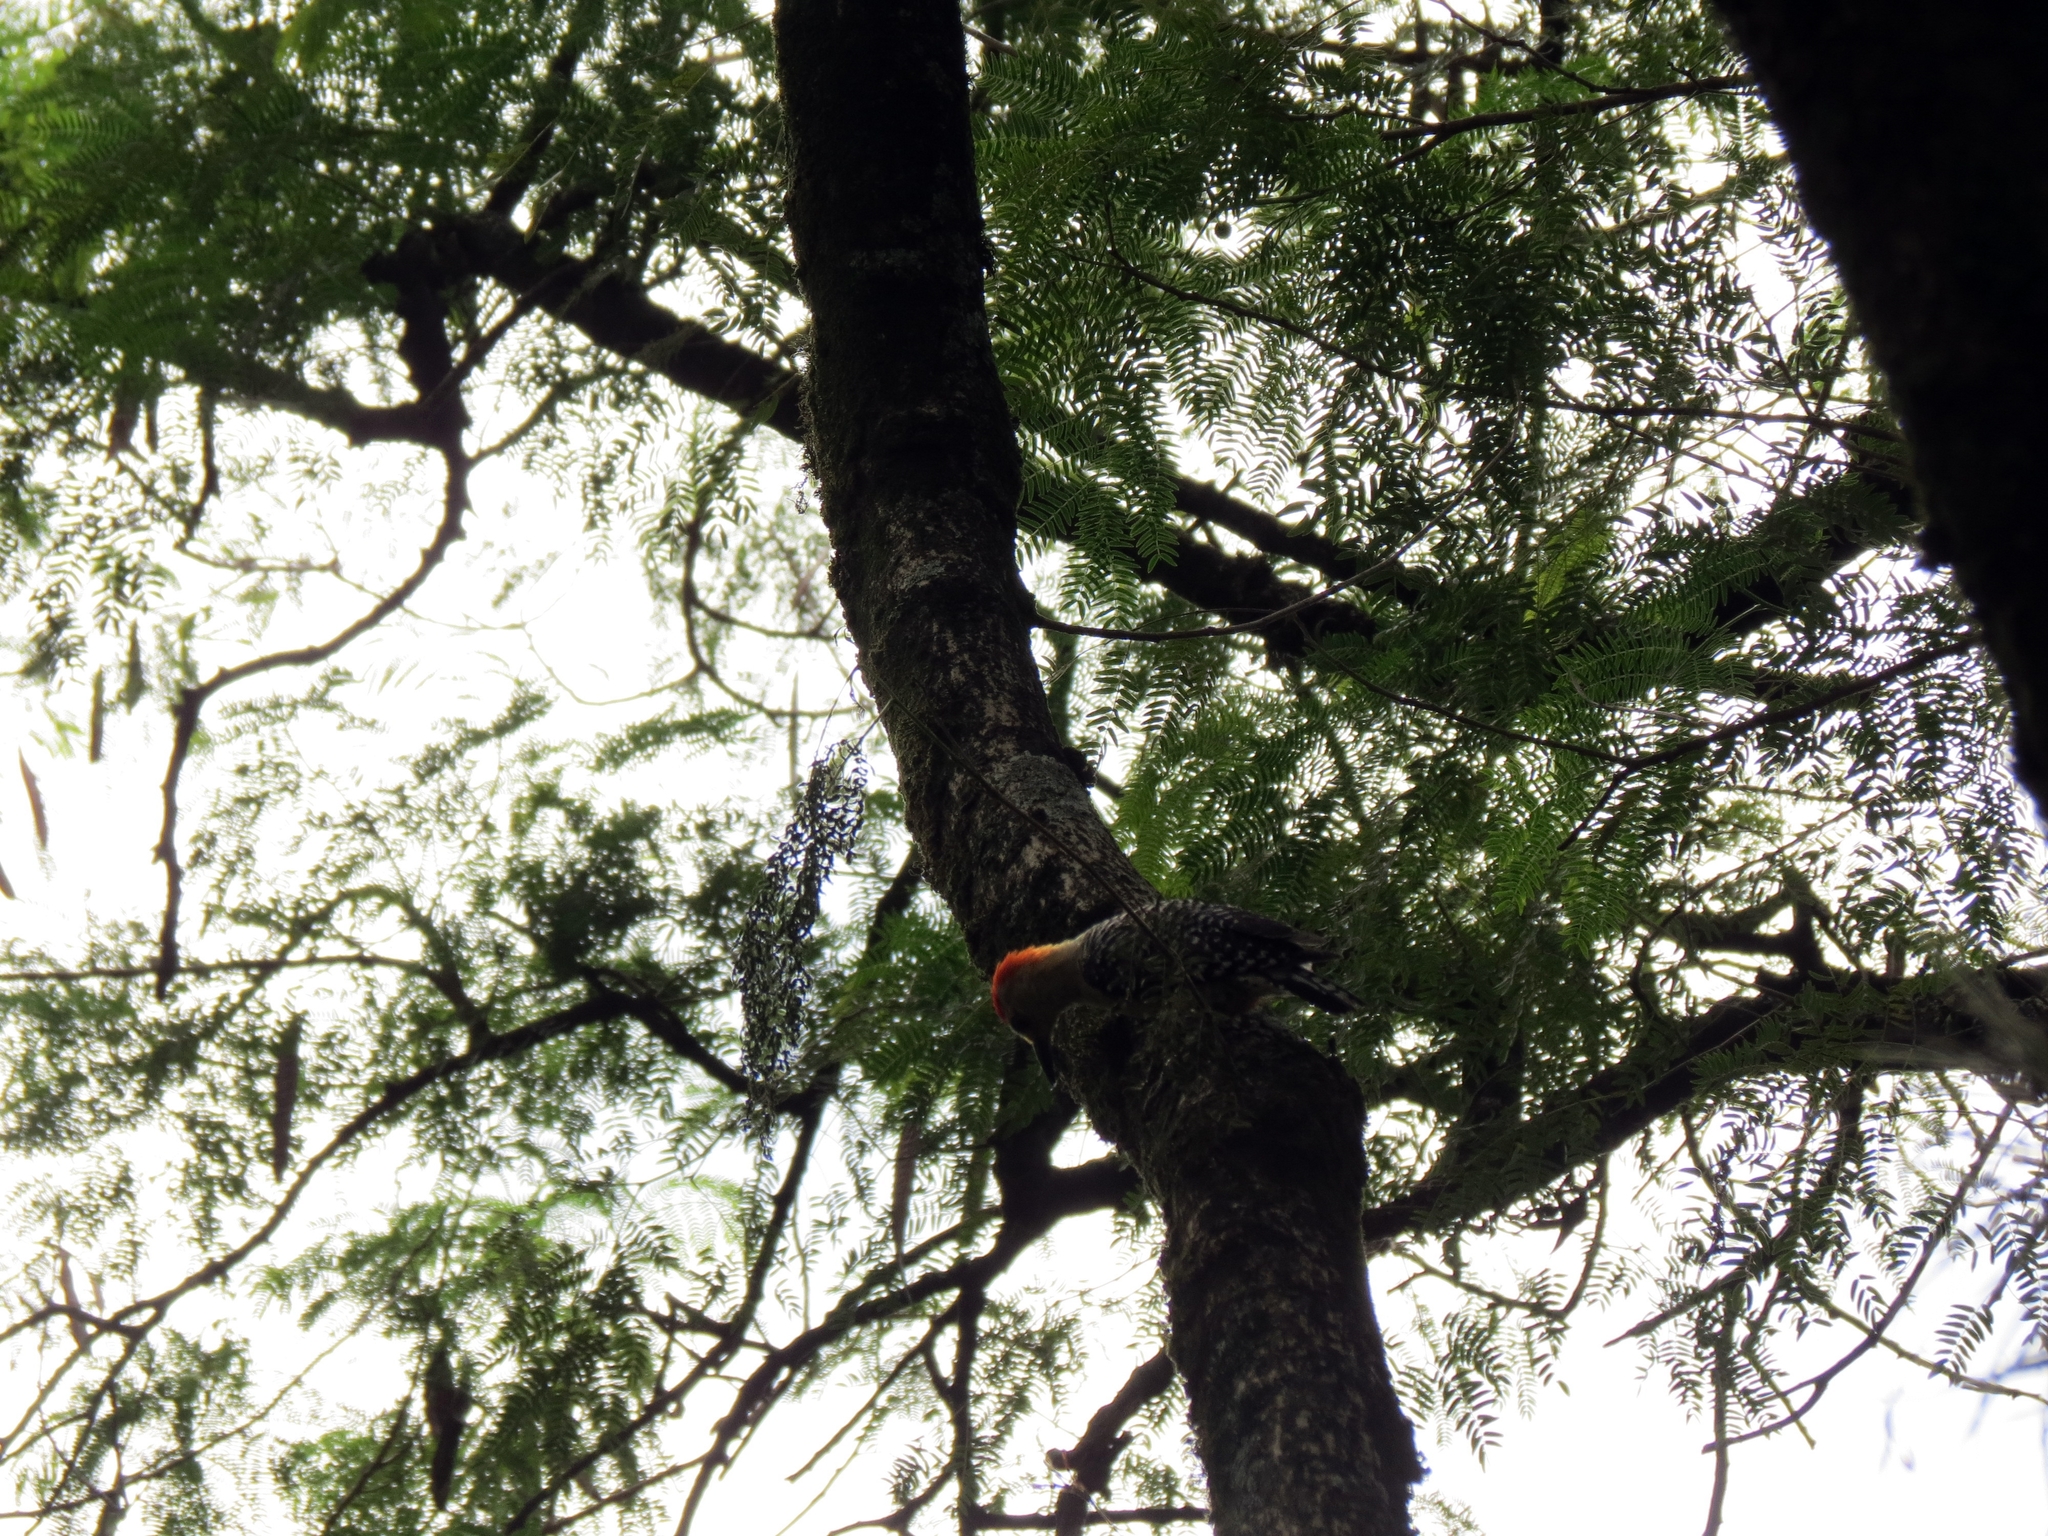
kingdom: Animalia
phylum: Chordata
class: Aves
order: Piciformes
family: Picidae
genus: Melanerpes
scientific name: Melanerpes rubricapillus
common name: Red-crowned woodpecker
